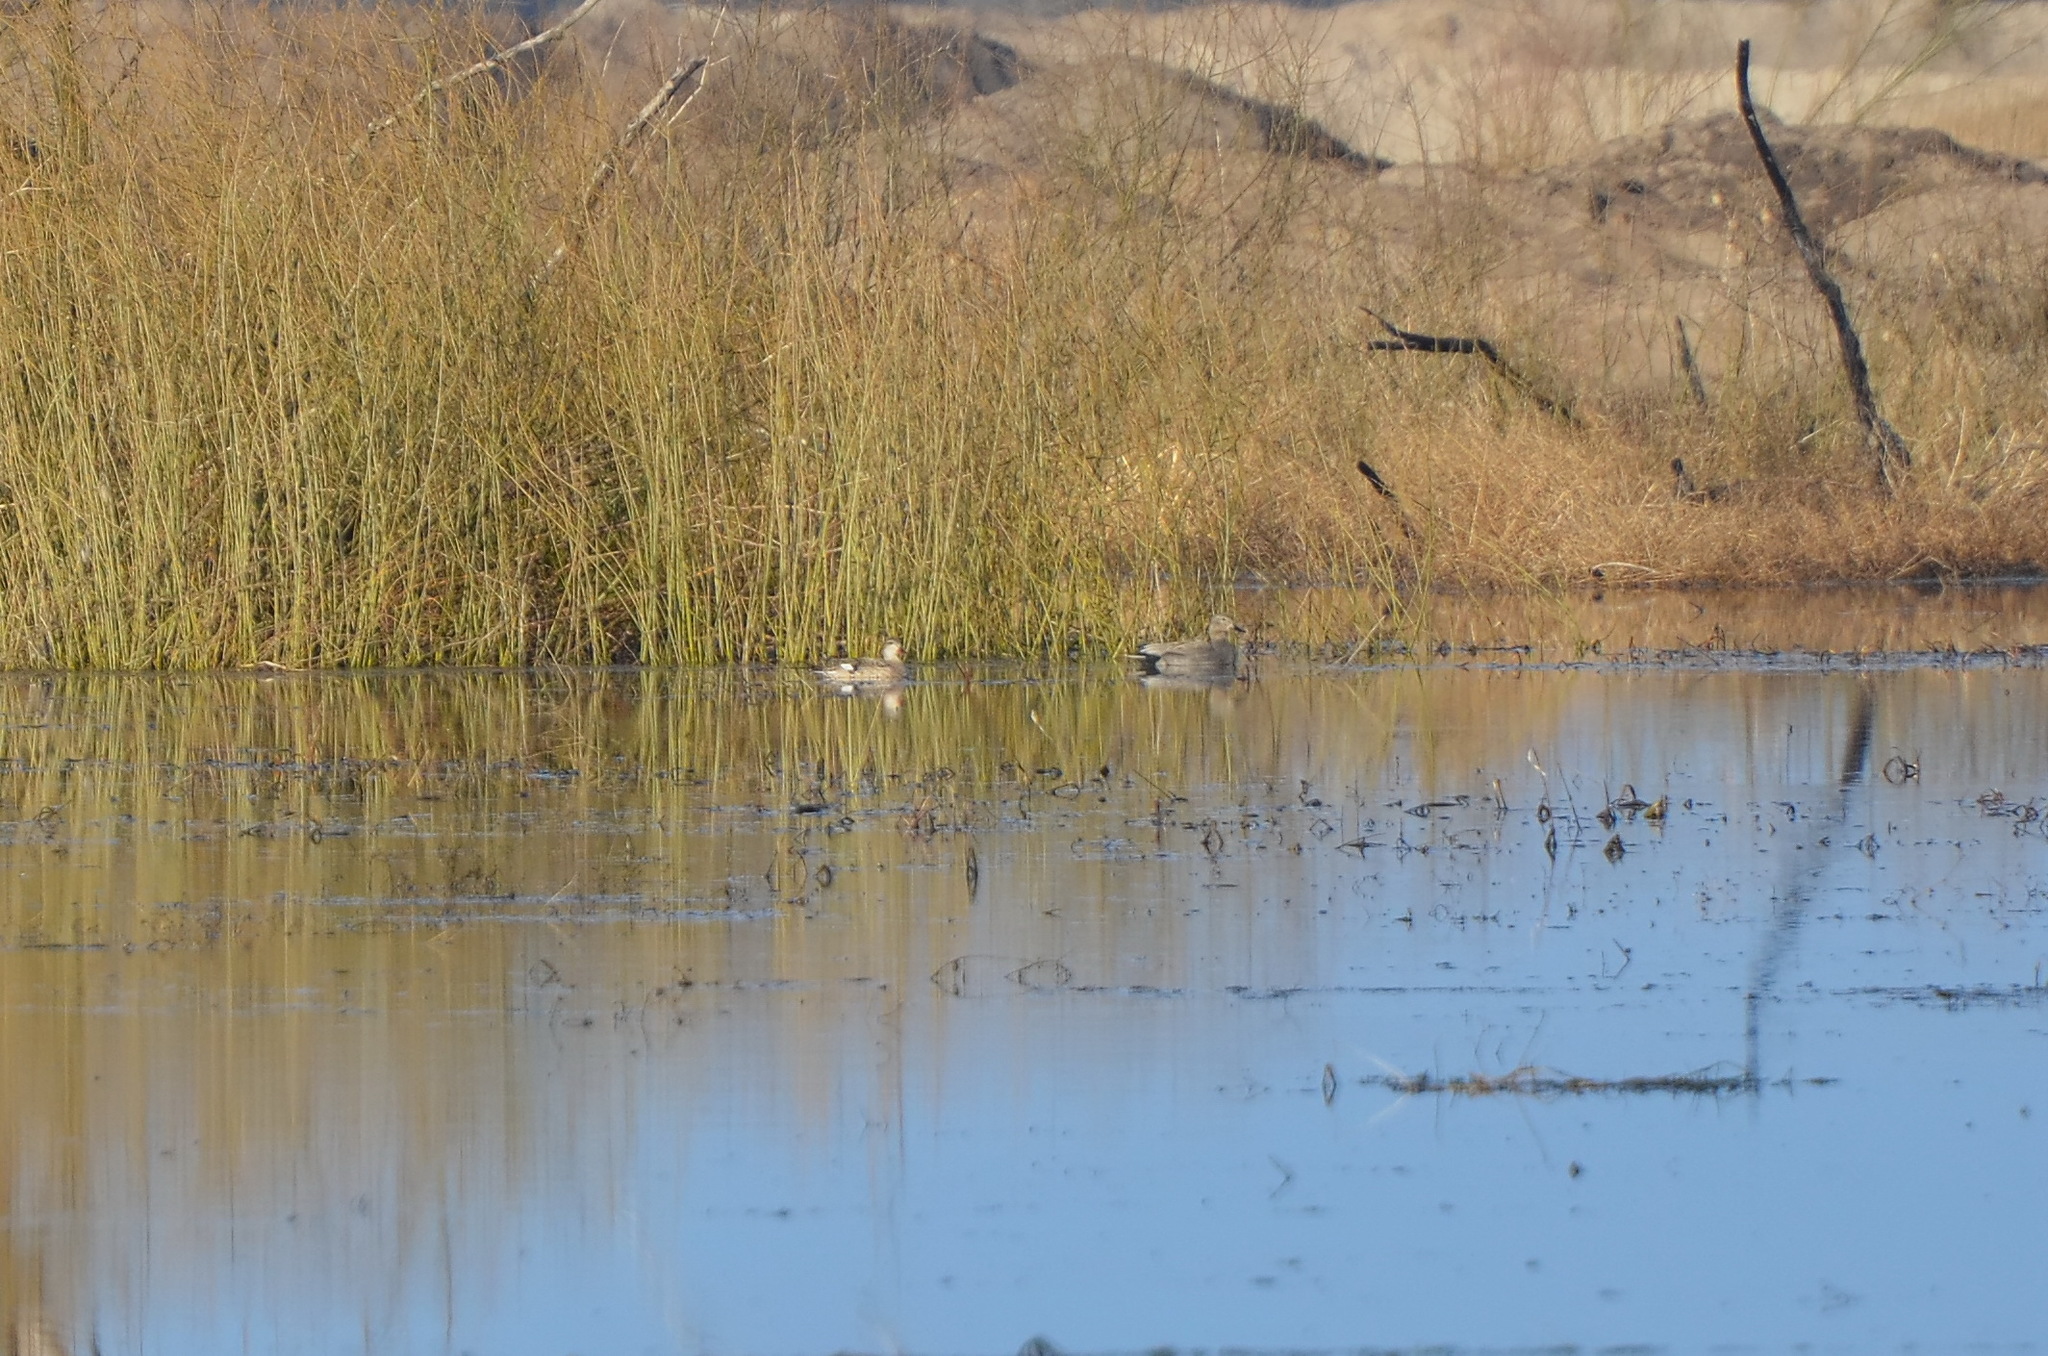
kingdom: Animalia
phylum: Chordata
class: Aves
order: Anseriformes
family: Anatidae
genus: Mareca
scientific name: Mareca strepera
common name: Gadwall
